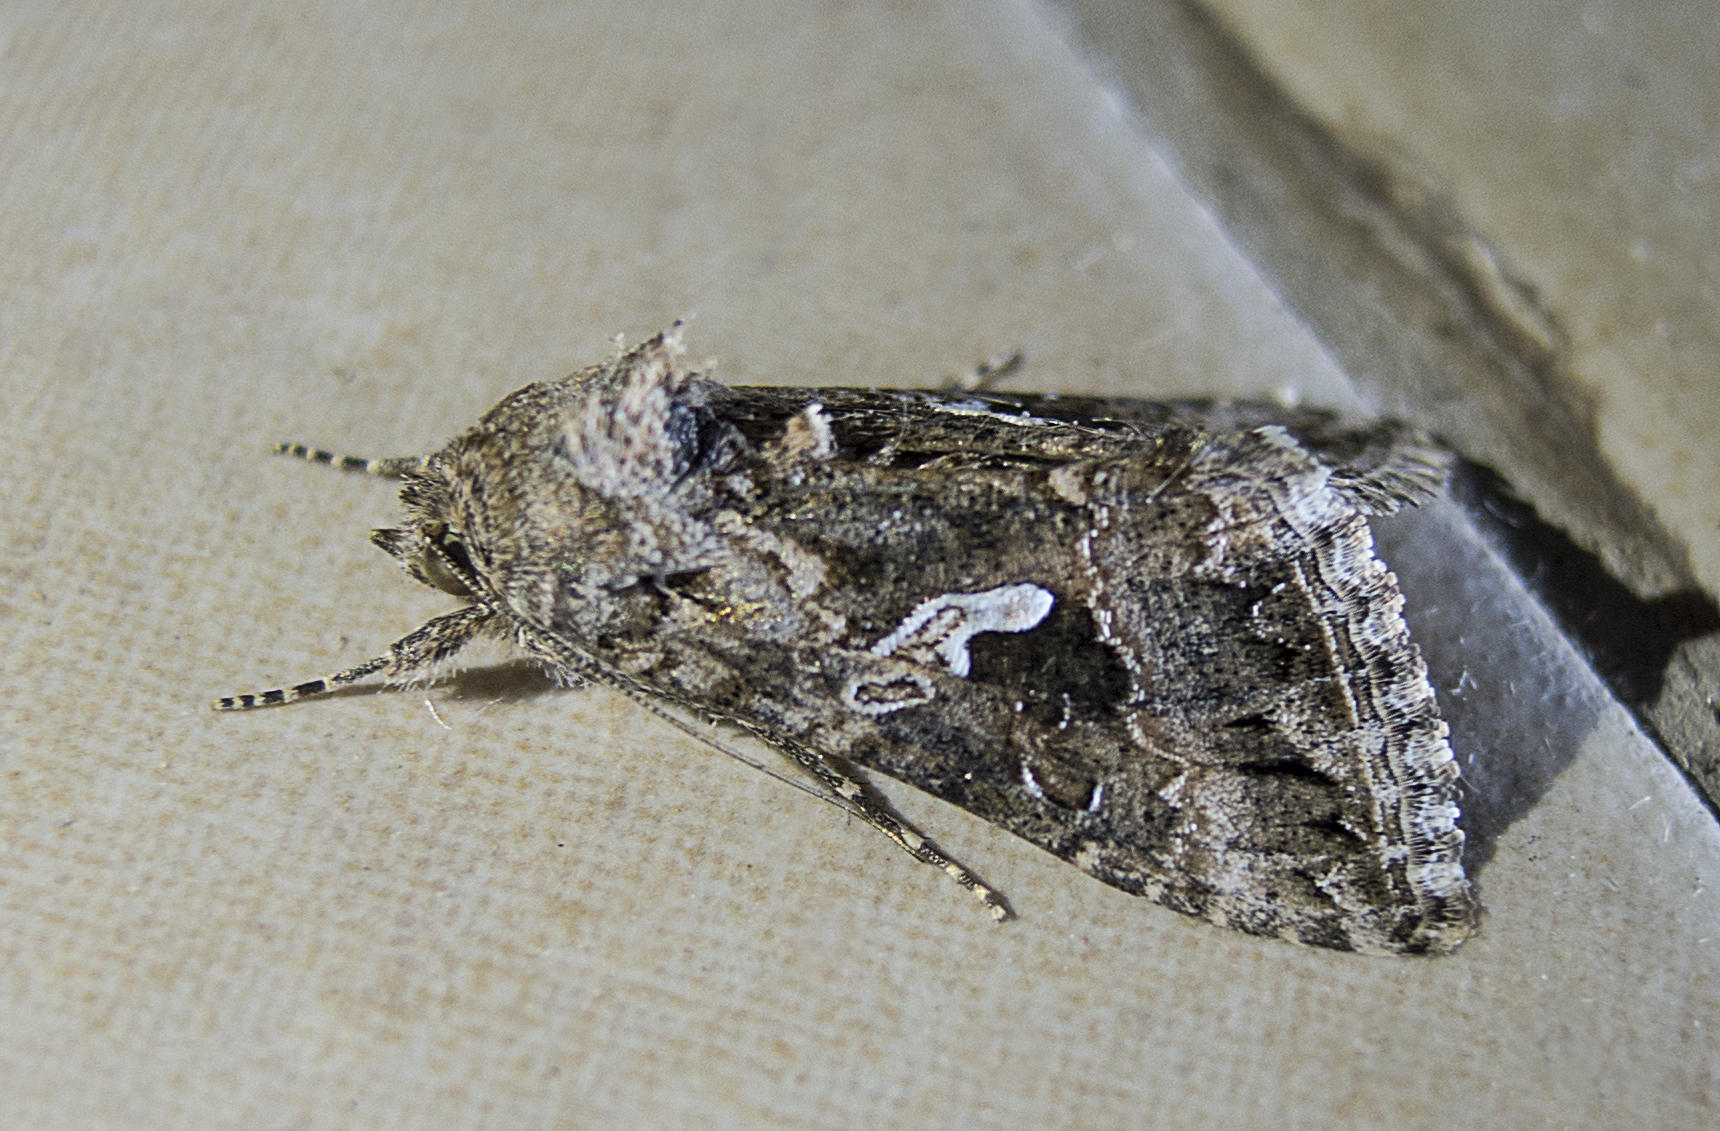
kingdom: Animalia
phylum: Arthropoda
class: Insecta
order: Lepidoptera
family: Noctuidae
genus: Trichoplusia
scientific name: Trichoplusia ni
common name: Ni moth
